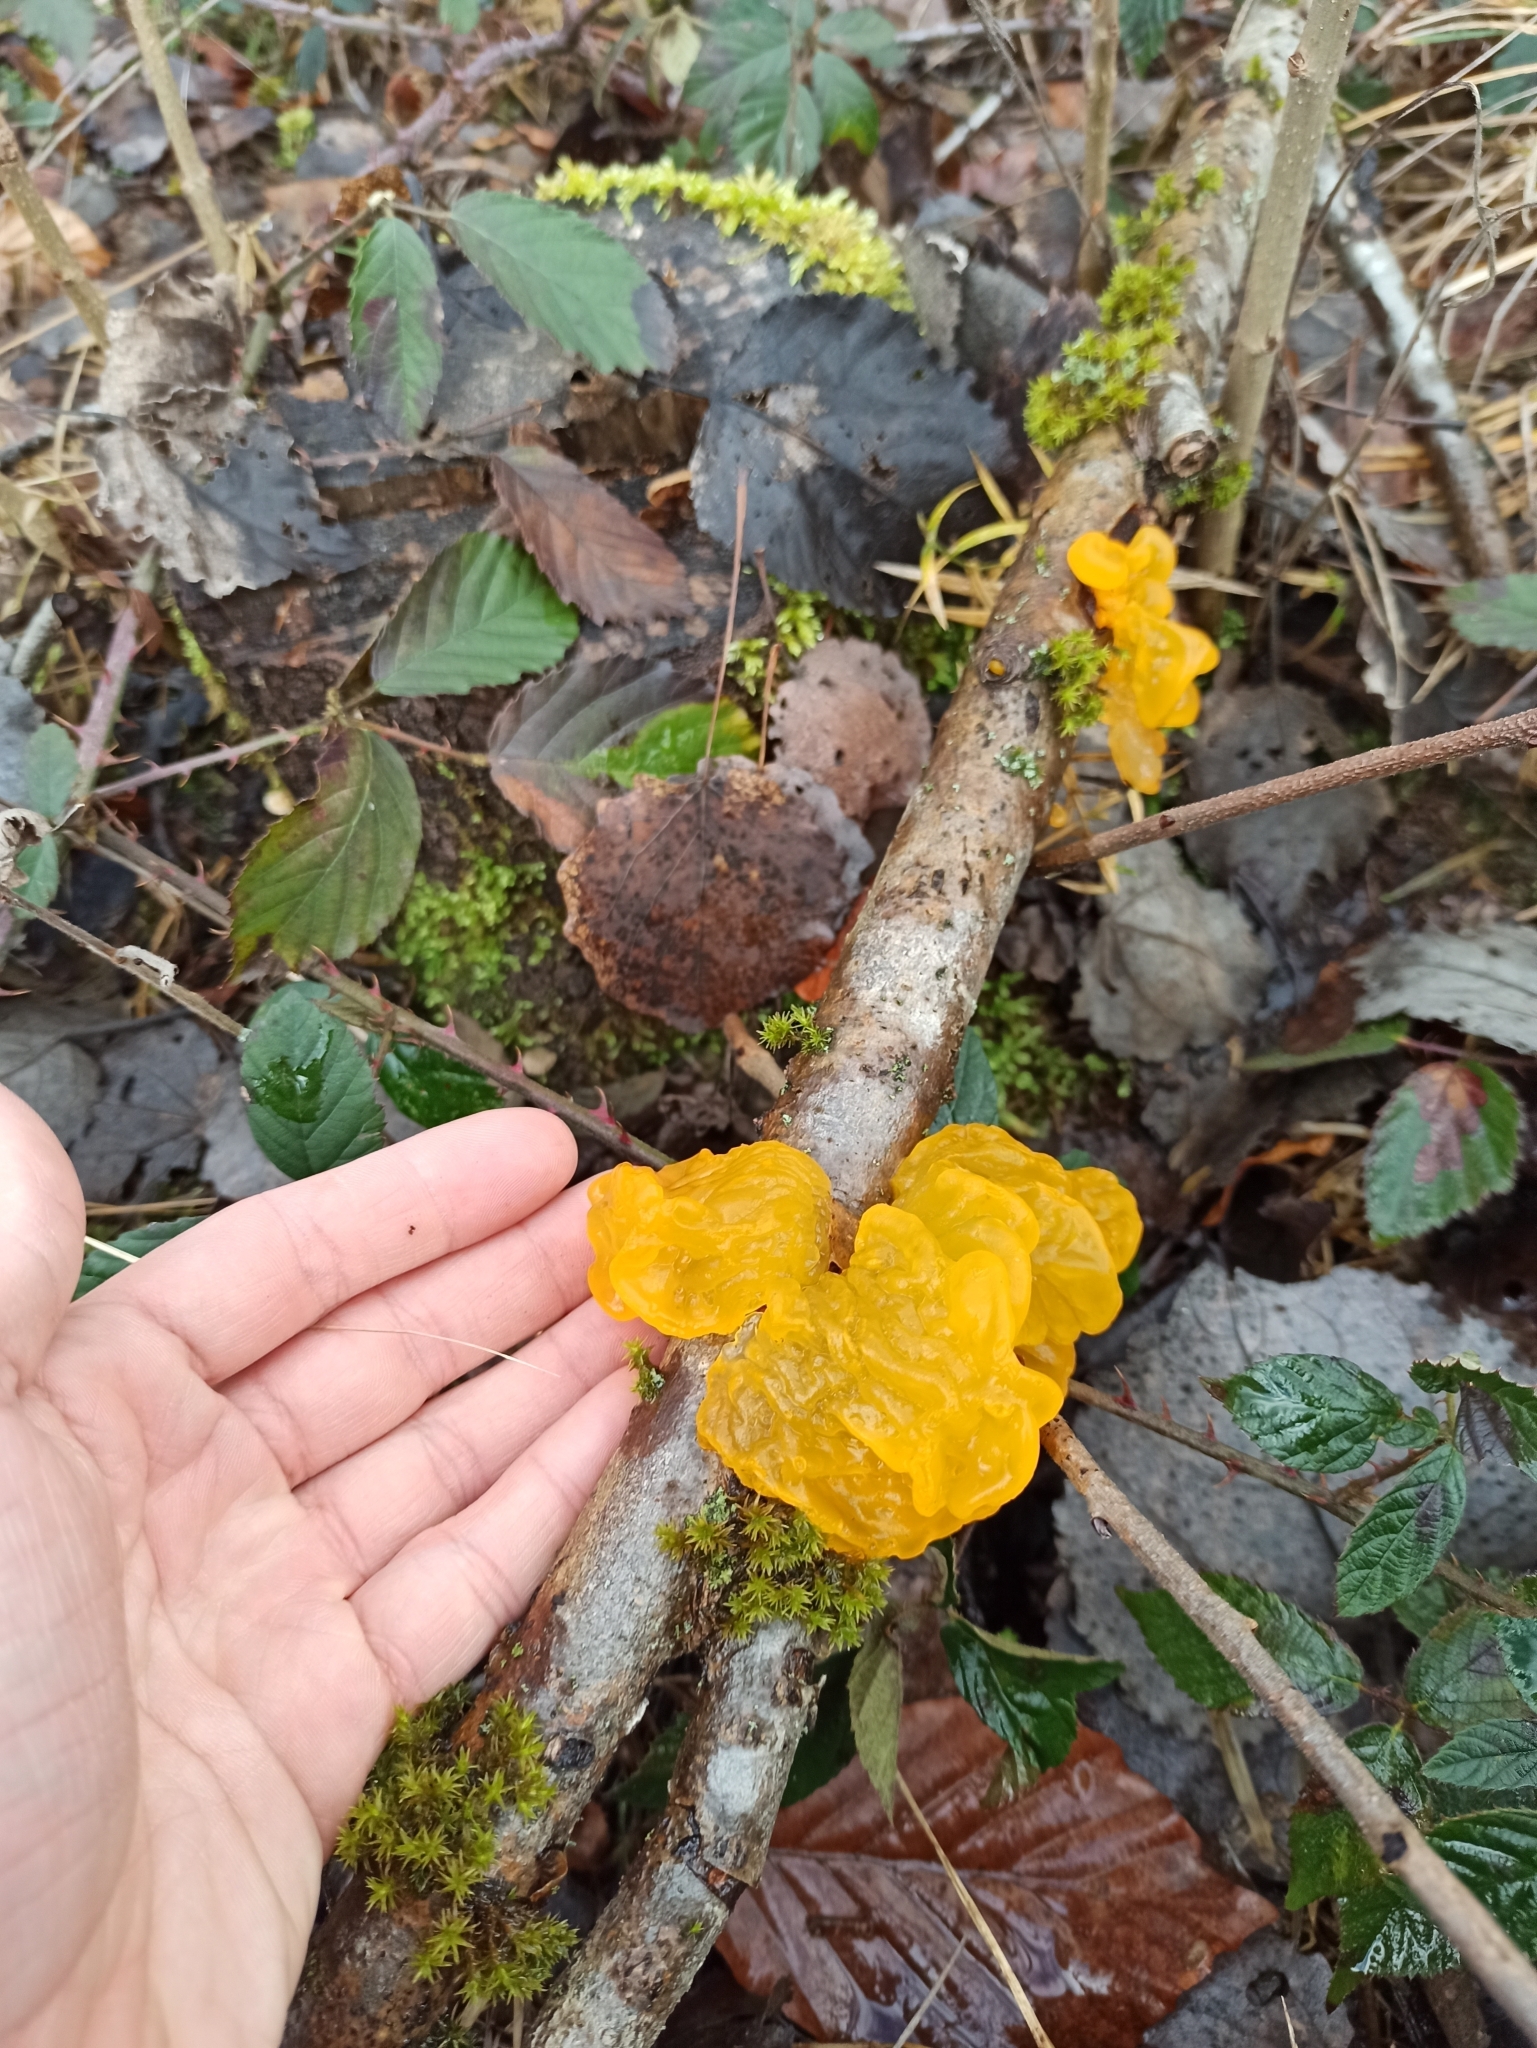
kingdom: Fungi
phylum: Basidiomycota
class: Tremellomycetes
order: Tremellales
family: Tremellaceae
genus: Tremella
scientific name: Tremella mesenterica
